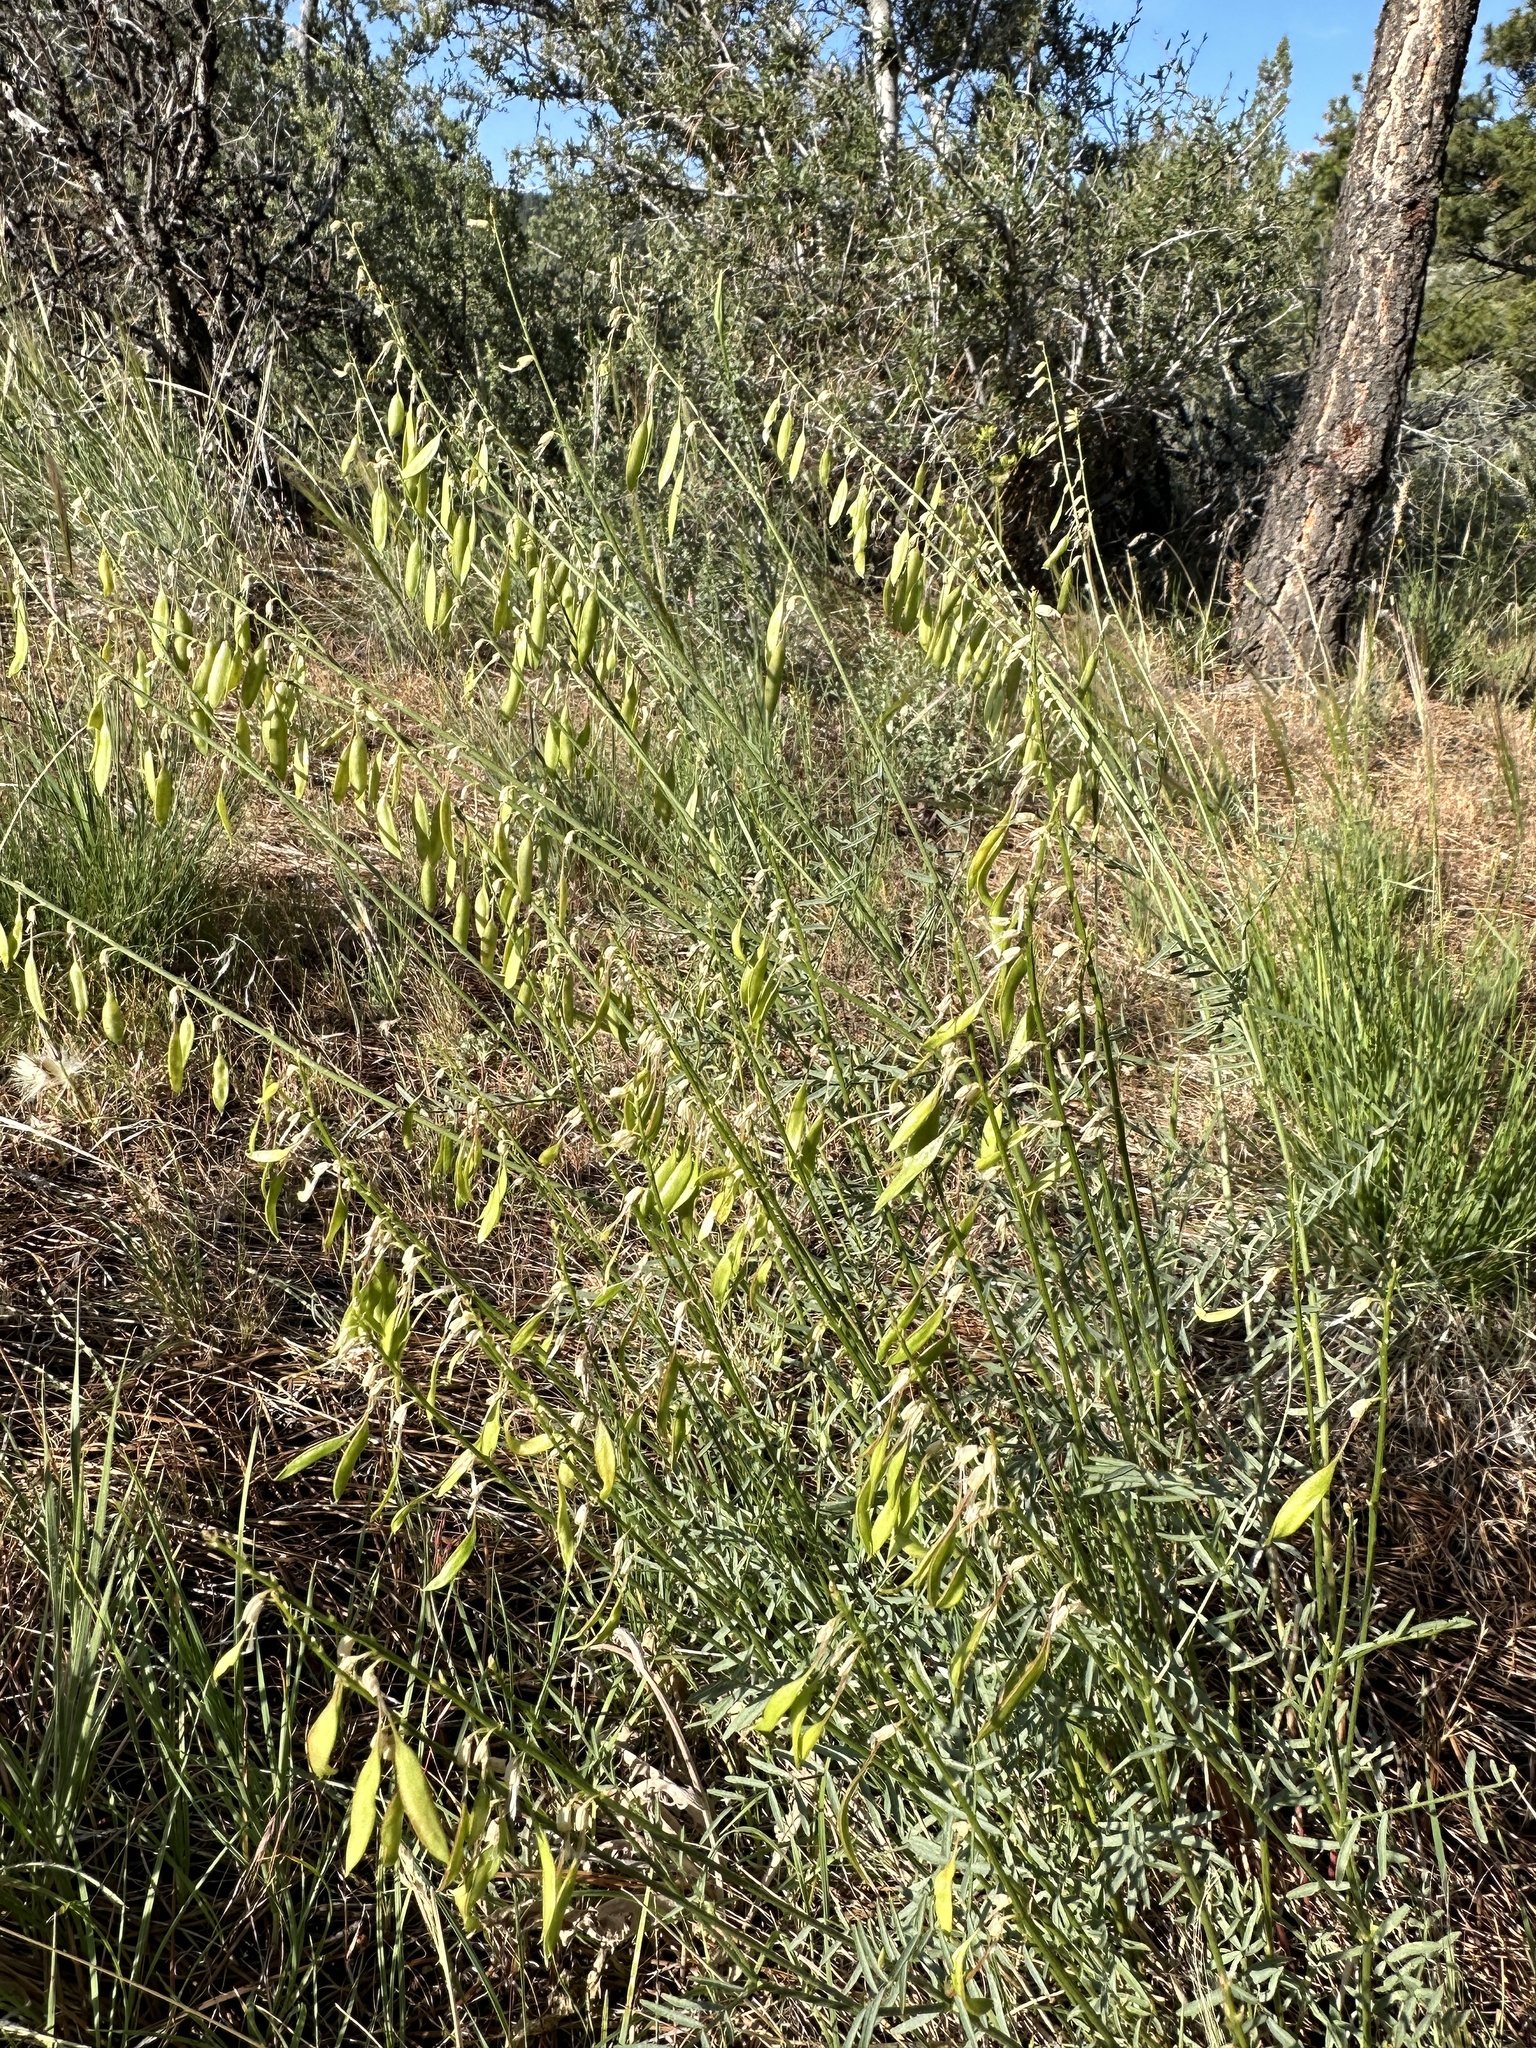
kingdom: Plantae
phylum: Tracheophyta
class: Magnoliopsida
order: Fabales
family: Fabaceae
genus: Astragalus
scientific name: Astragalus filipes
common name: Basalt milk-vetch
